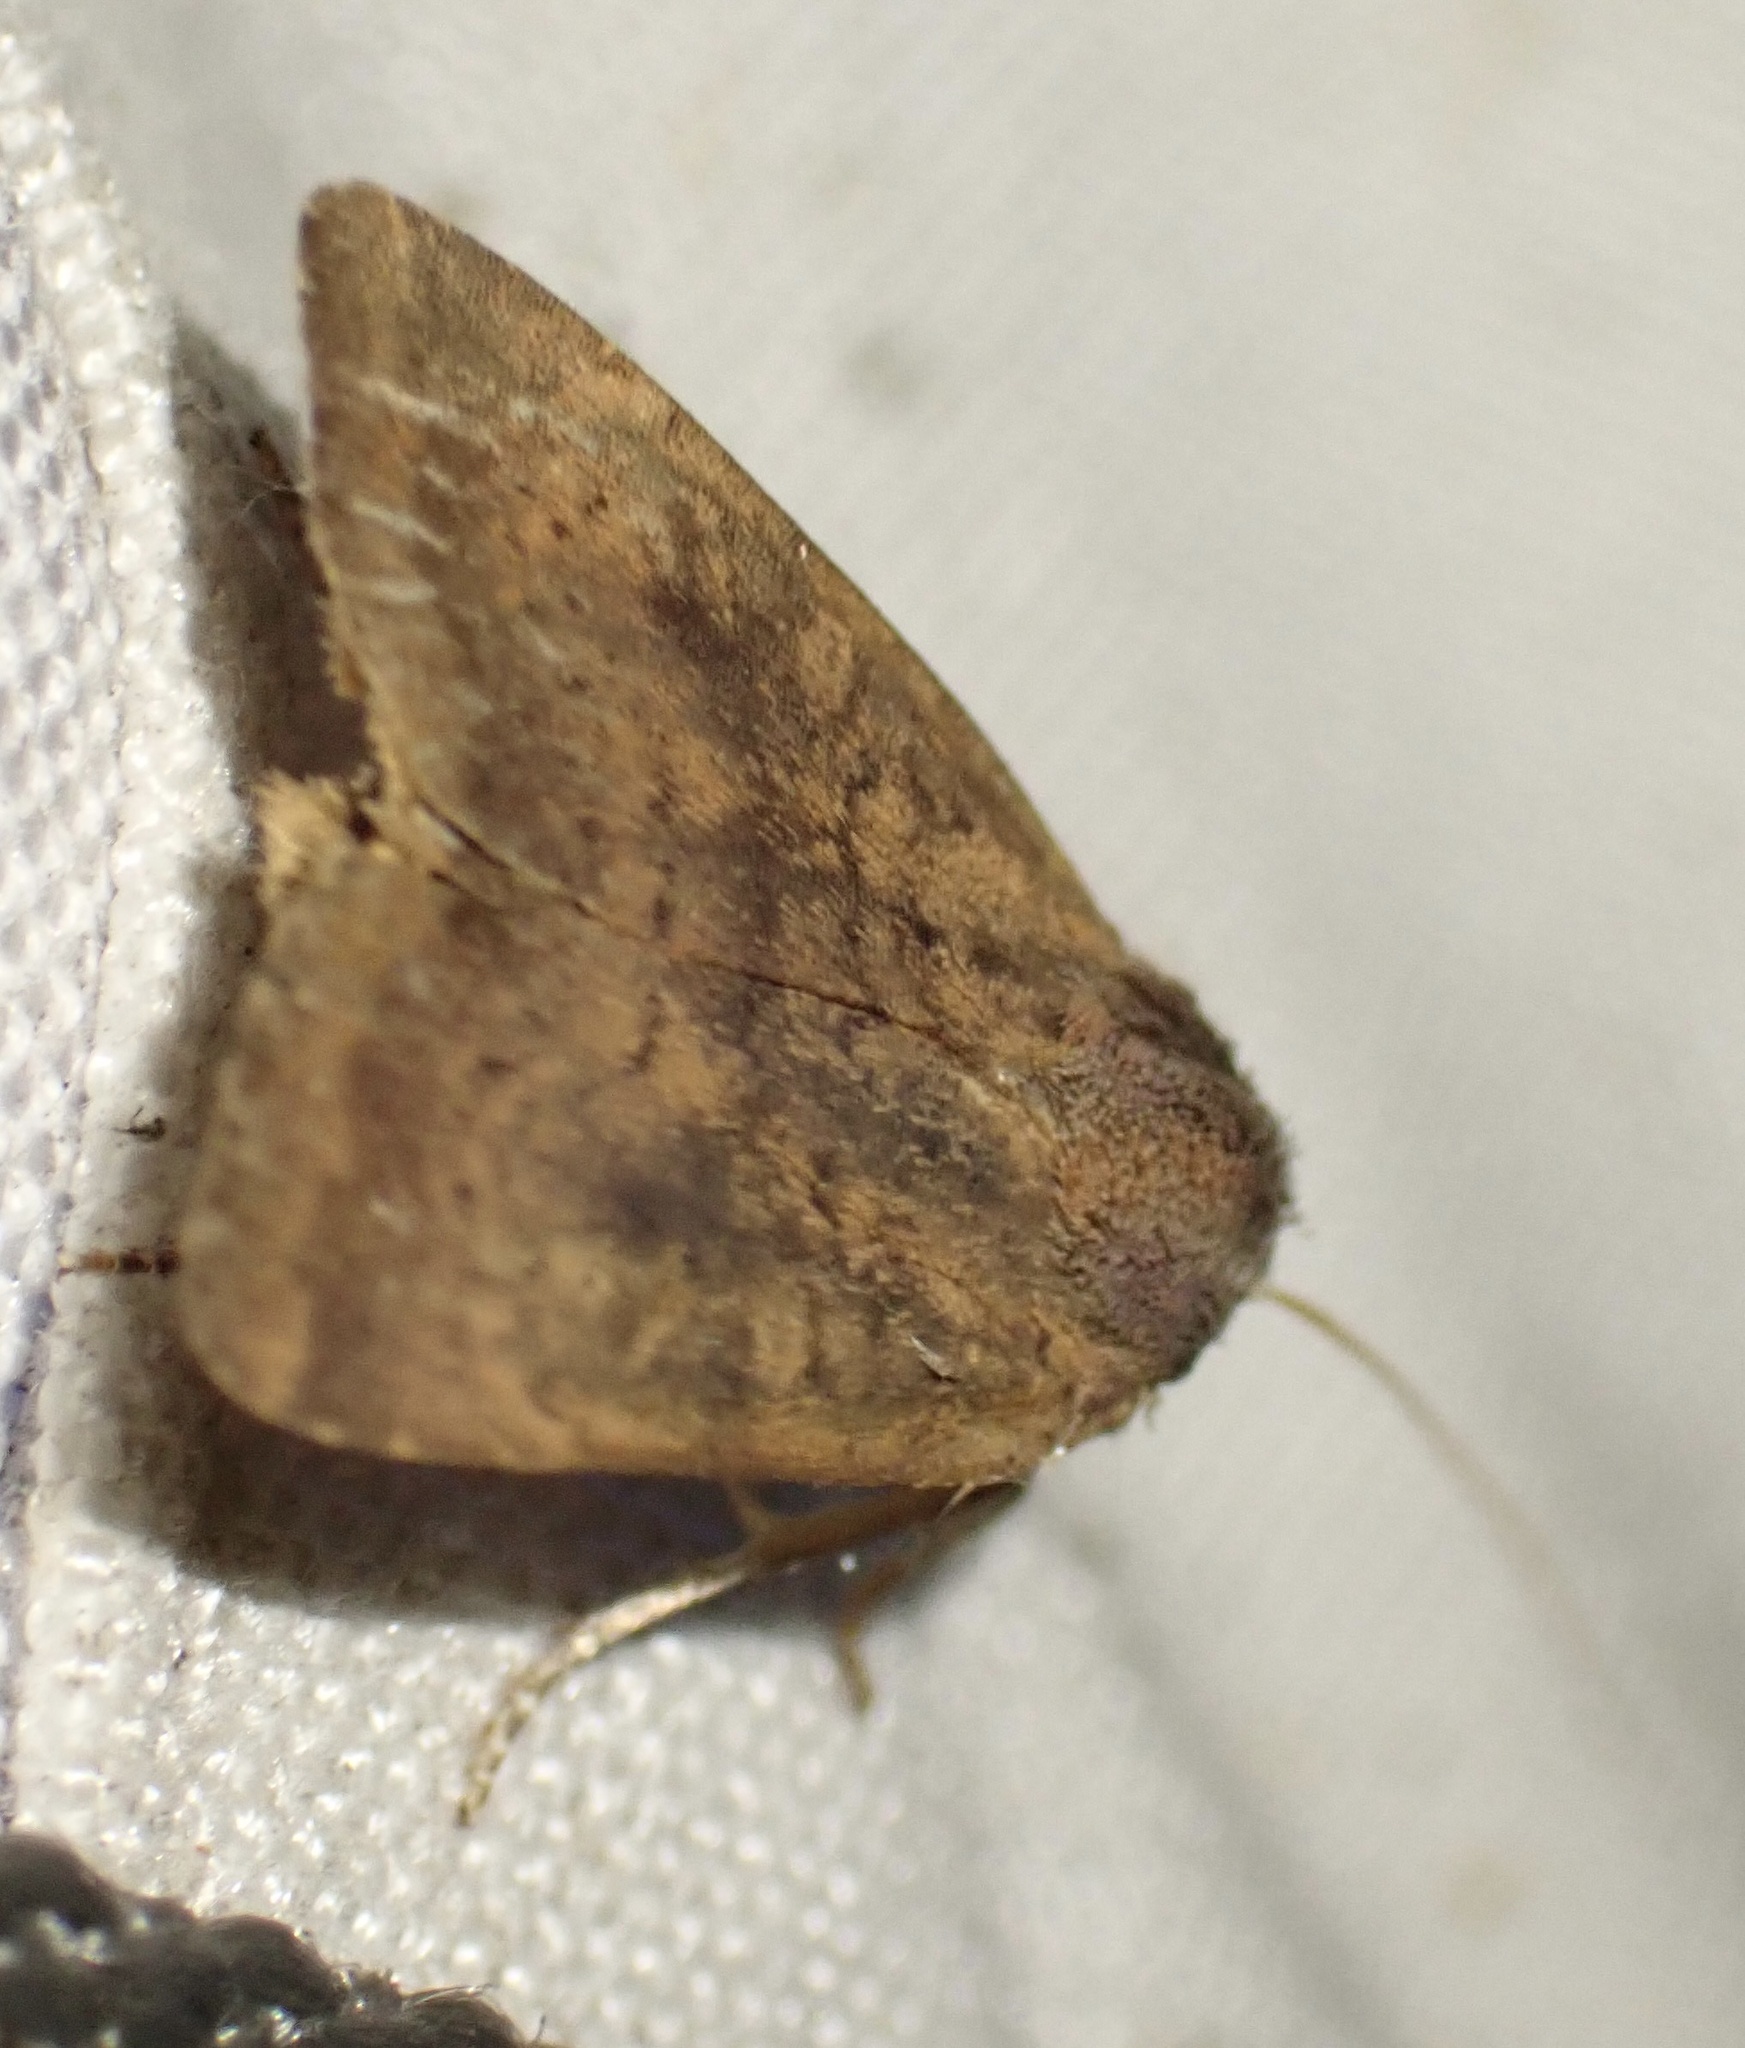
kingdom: Animalia
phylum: Arthropoda
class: Insecta
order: Lepidoptera
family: Noctuidae
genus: Noctua
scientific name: Noctua interjecta
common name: Least yellow underwing
